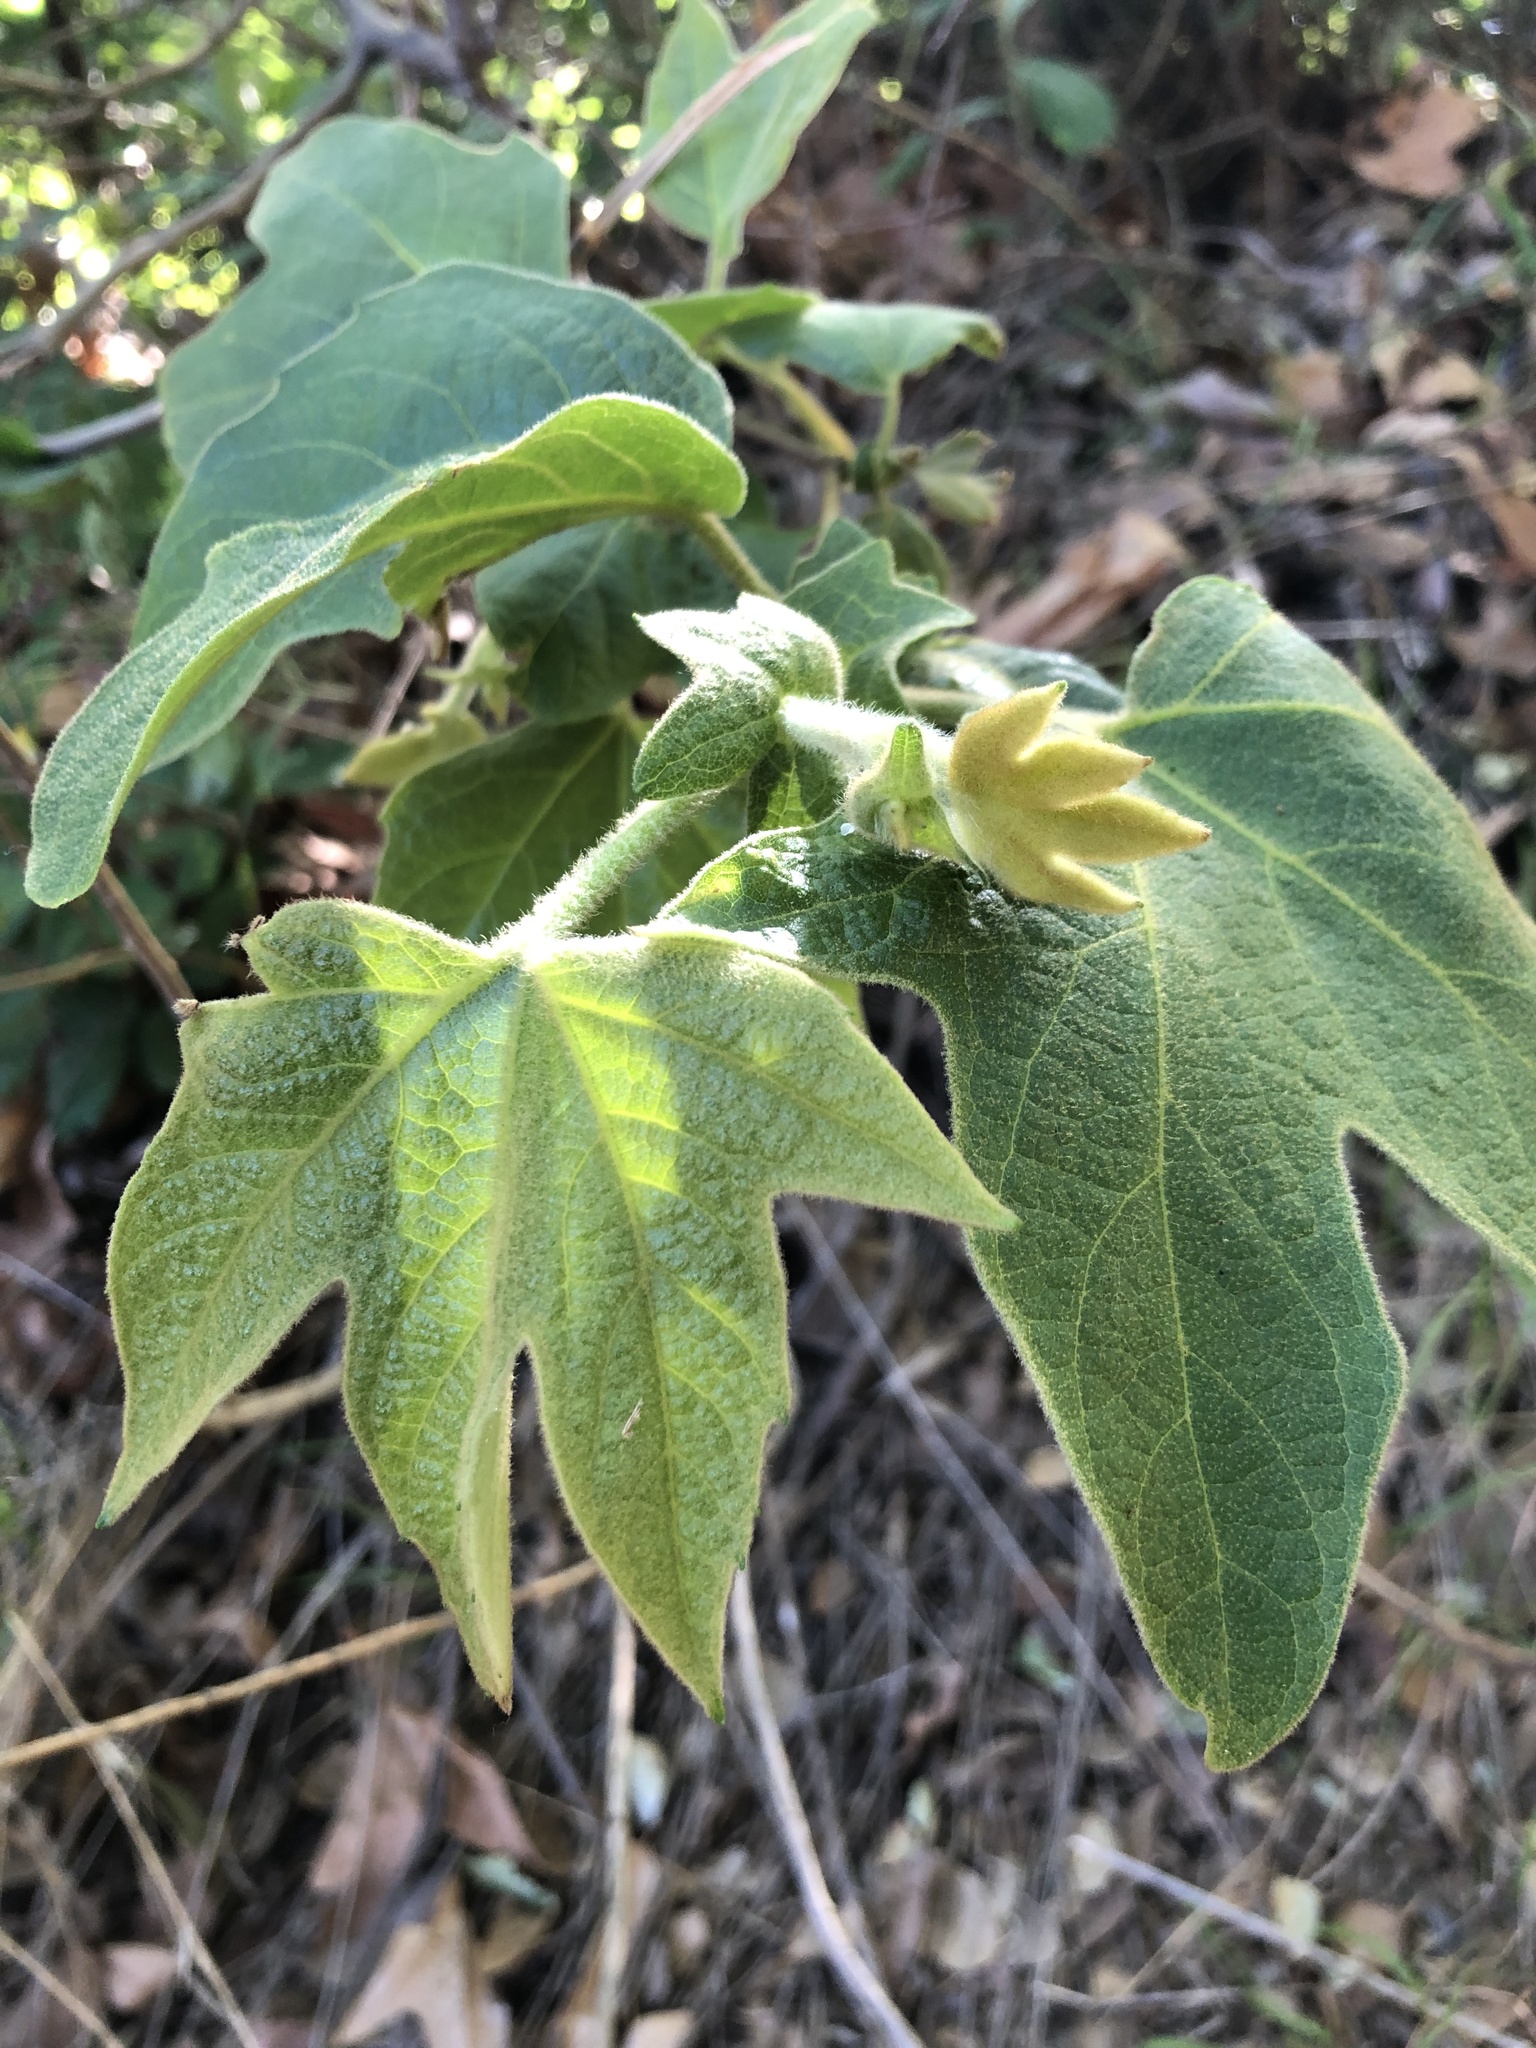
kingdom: Plantae
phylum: Tracheophyta
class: Magnoliopsida
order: Proteales
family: Platanaceae
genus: Platanus
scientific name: Platanus racemosa
